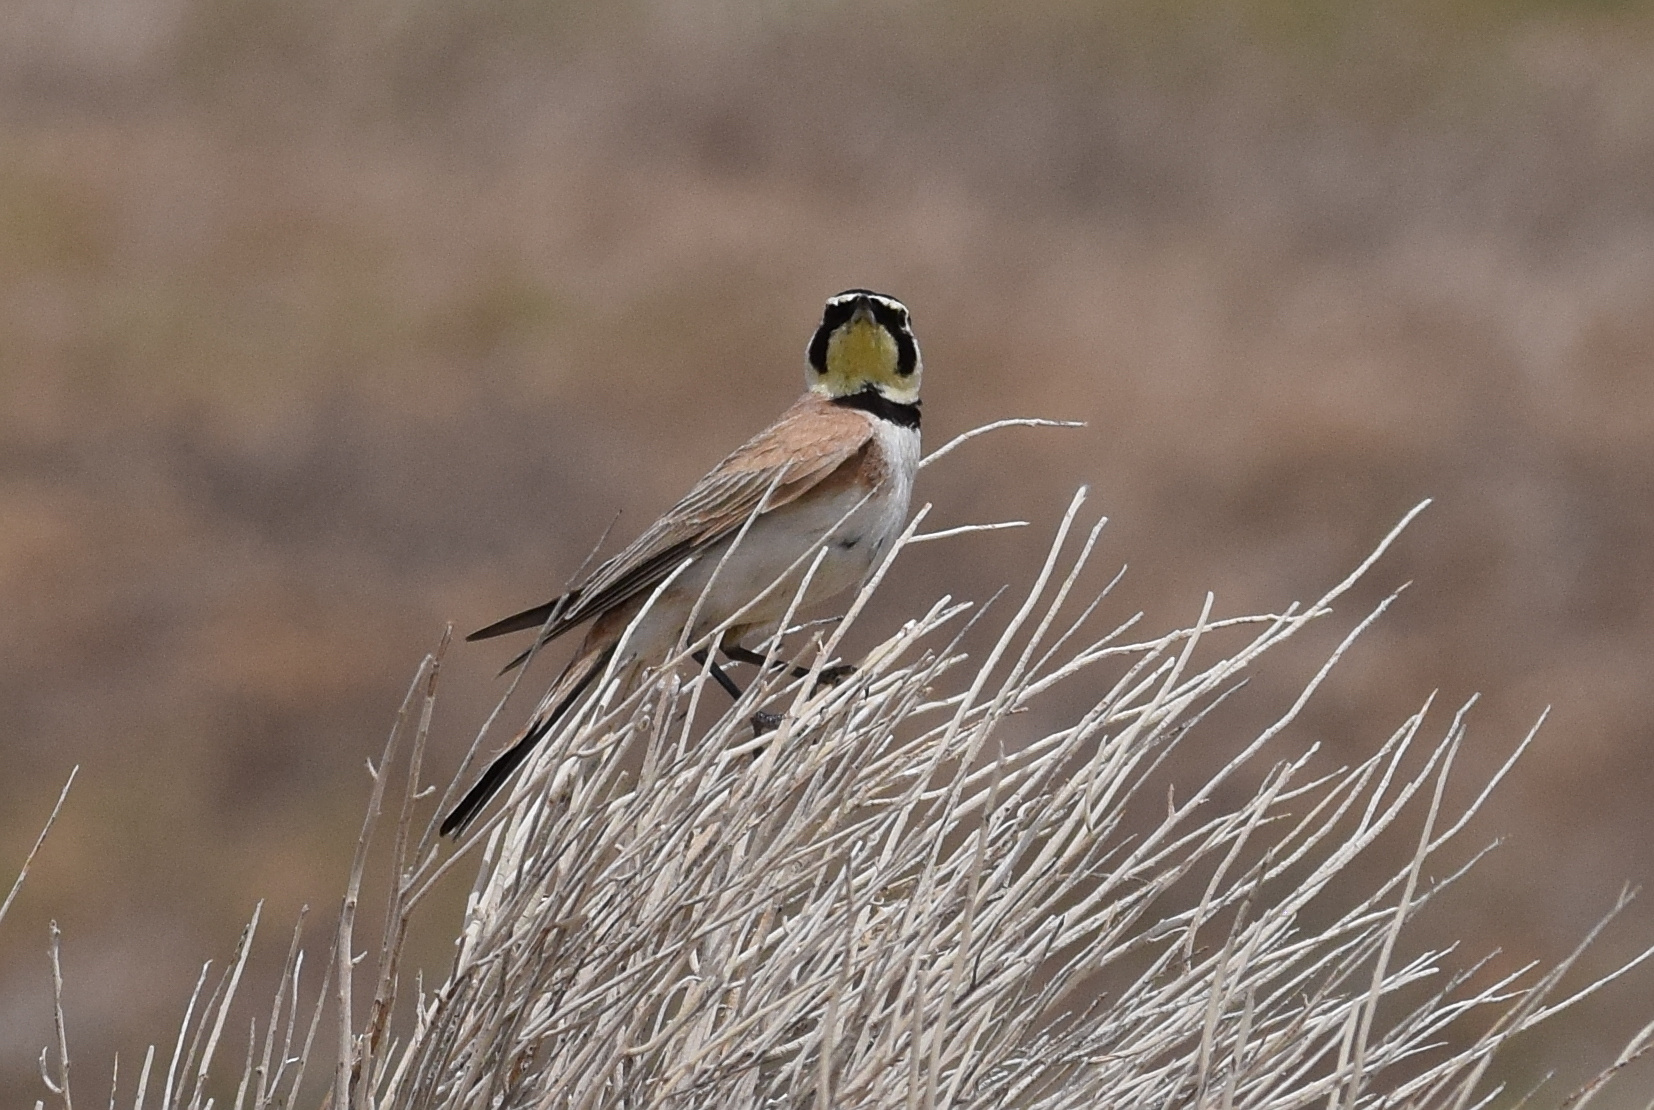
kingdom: Animalia
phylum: Chordata
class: Aves
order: Passeriformes
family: Alaudidae
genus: Eremophila
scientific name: Eremophila alpestris
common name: Horned lark
